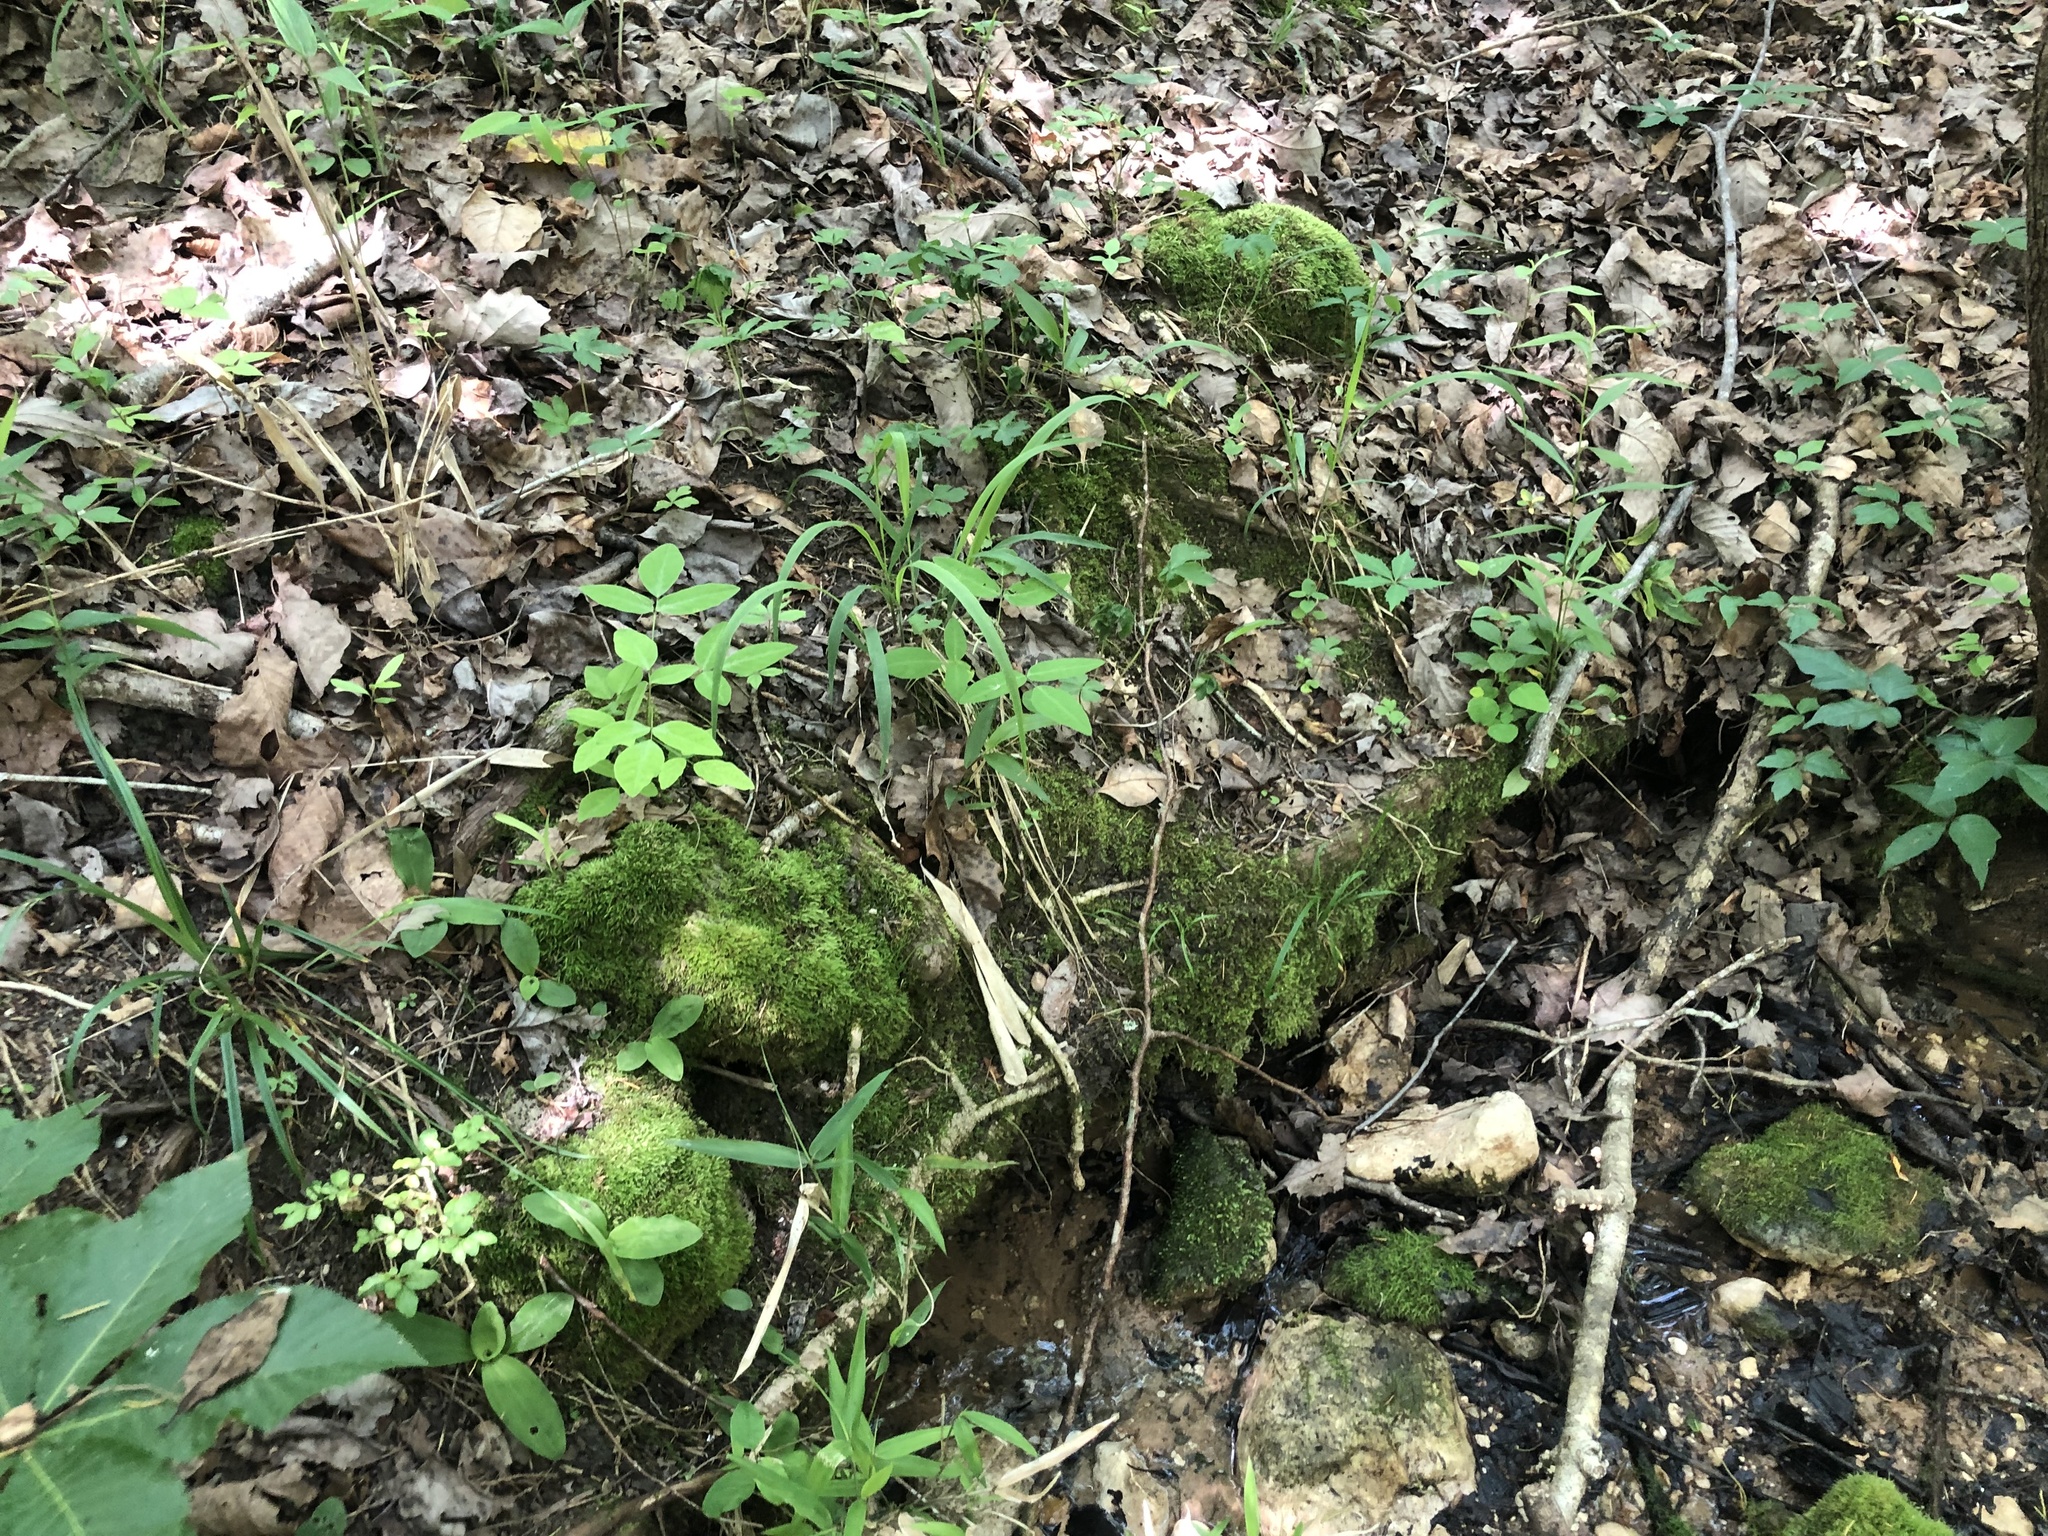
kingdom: Plantae
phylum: Tracheophyta
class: Liliopsida
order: Asparagales
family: Orchidaceae
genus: Ponthieva
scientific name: Ponthieva racemosa
